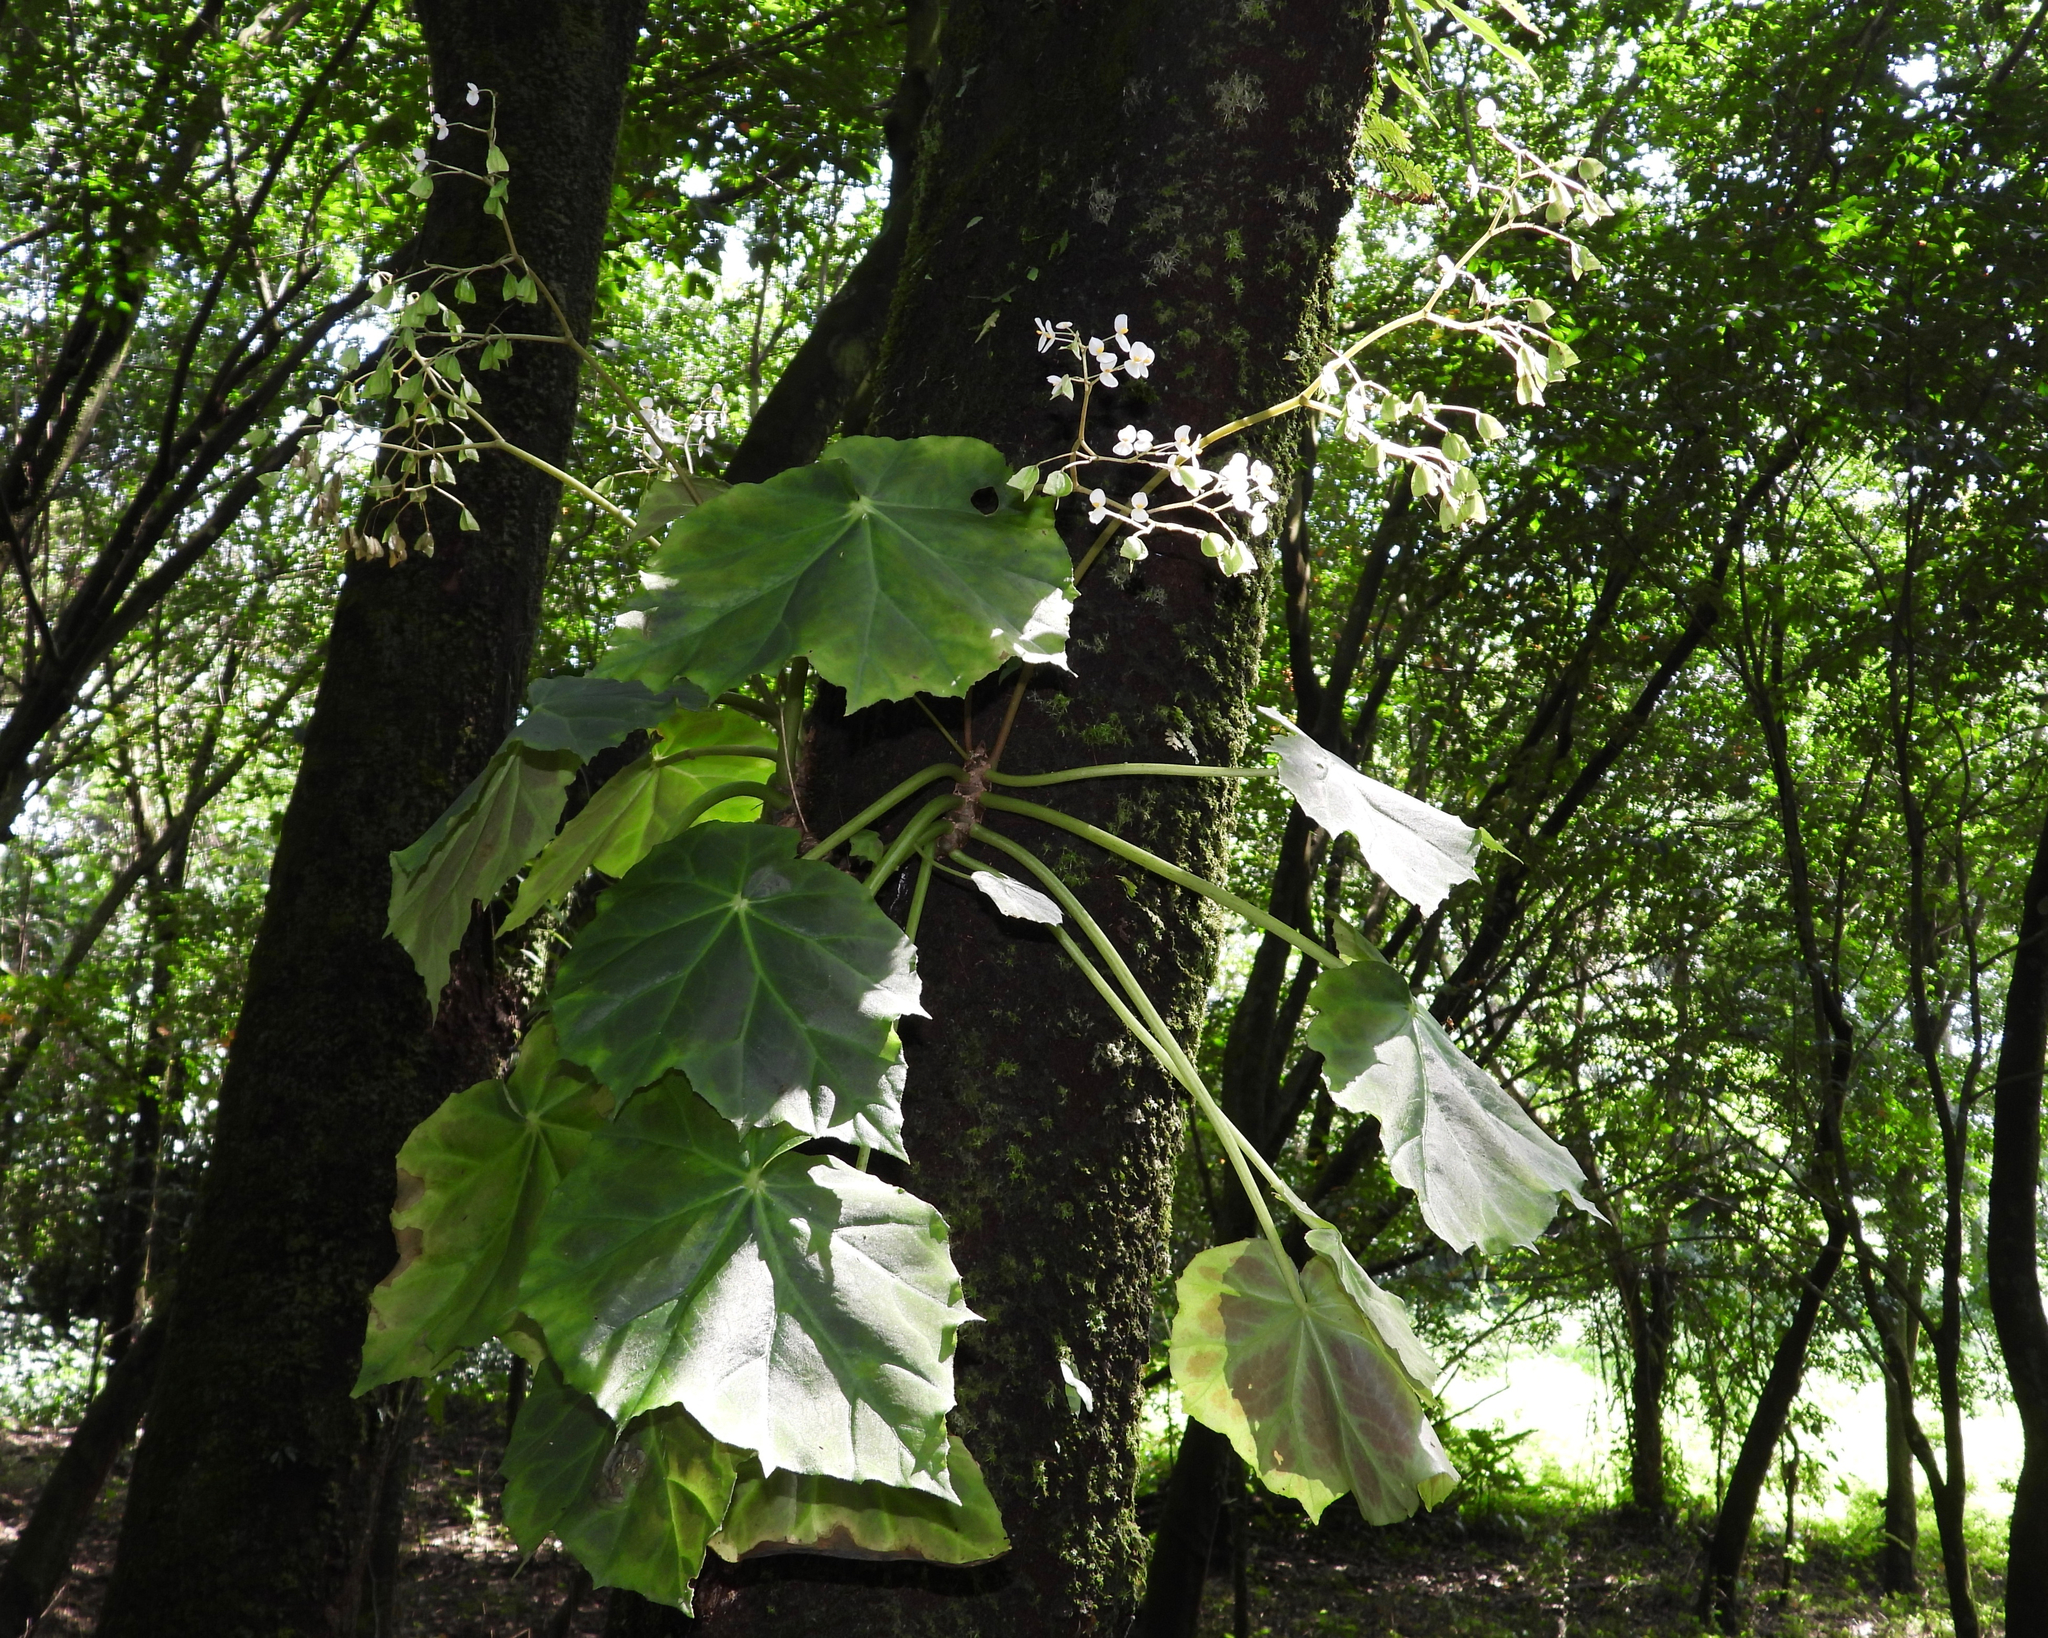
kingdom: Plantae
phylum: Tracheophyta
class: Magnoliopsida
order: Cucurbitales
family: Begoniaceae
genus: Begonia
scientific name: Begonia plebeja
